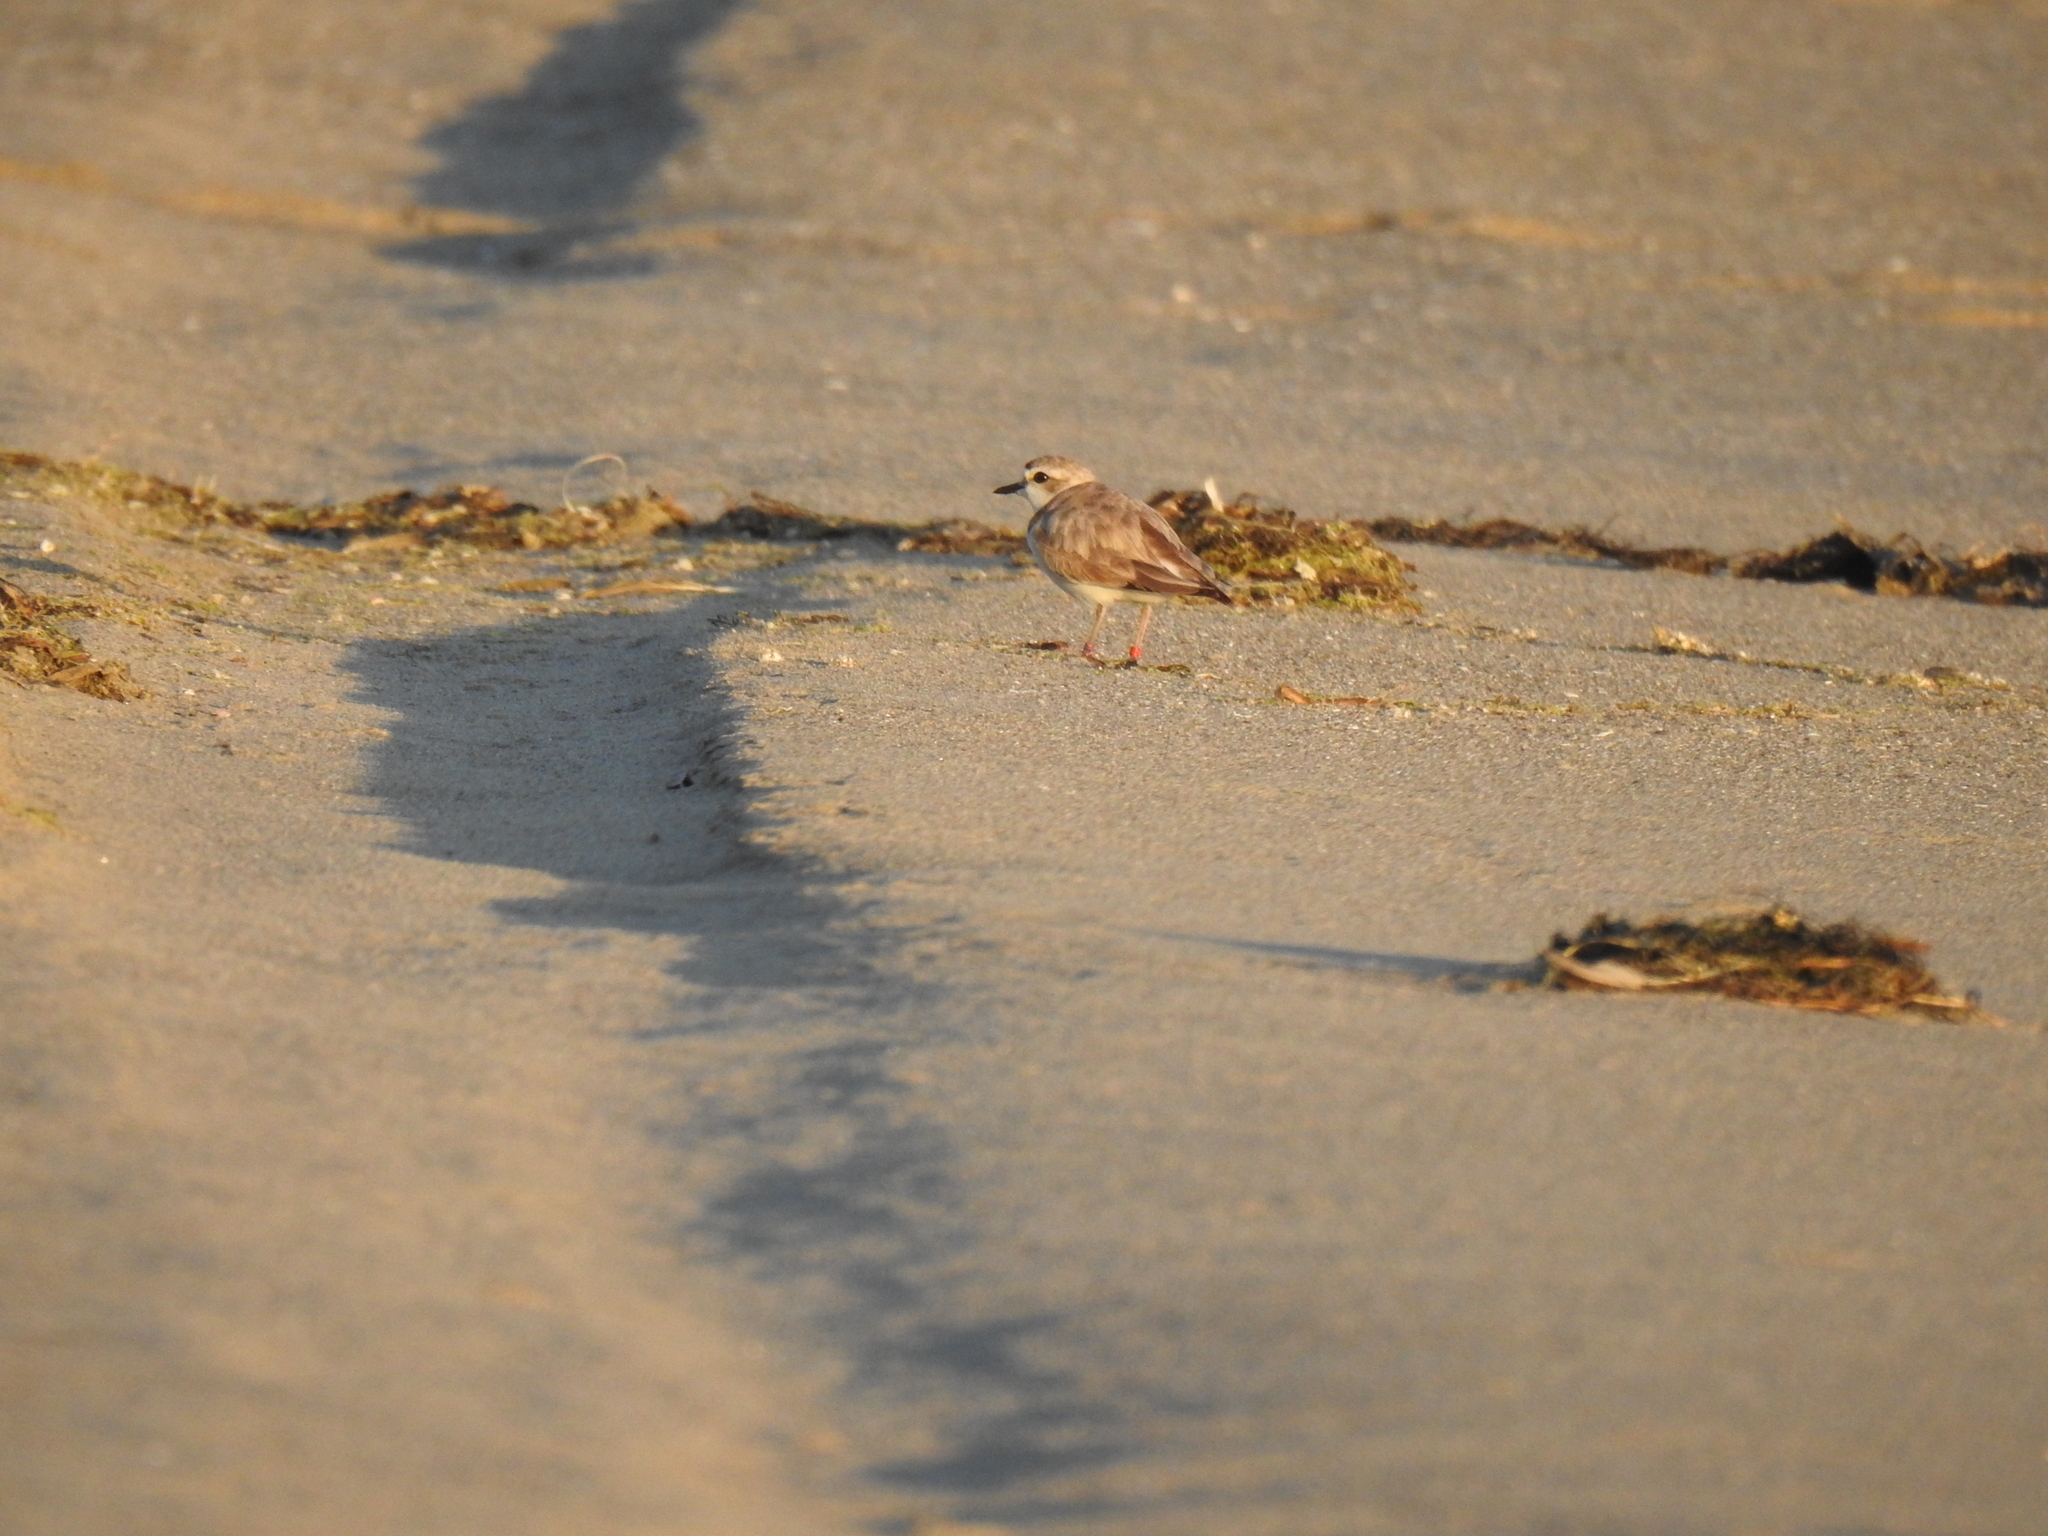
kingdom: Animalia
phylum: Chordata
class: Aves
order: Charadriiformes
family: Charadriidae
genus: Anarhynchus
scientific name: Anarhynchus
